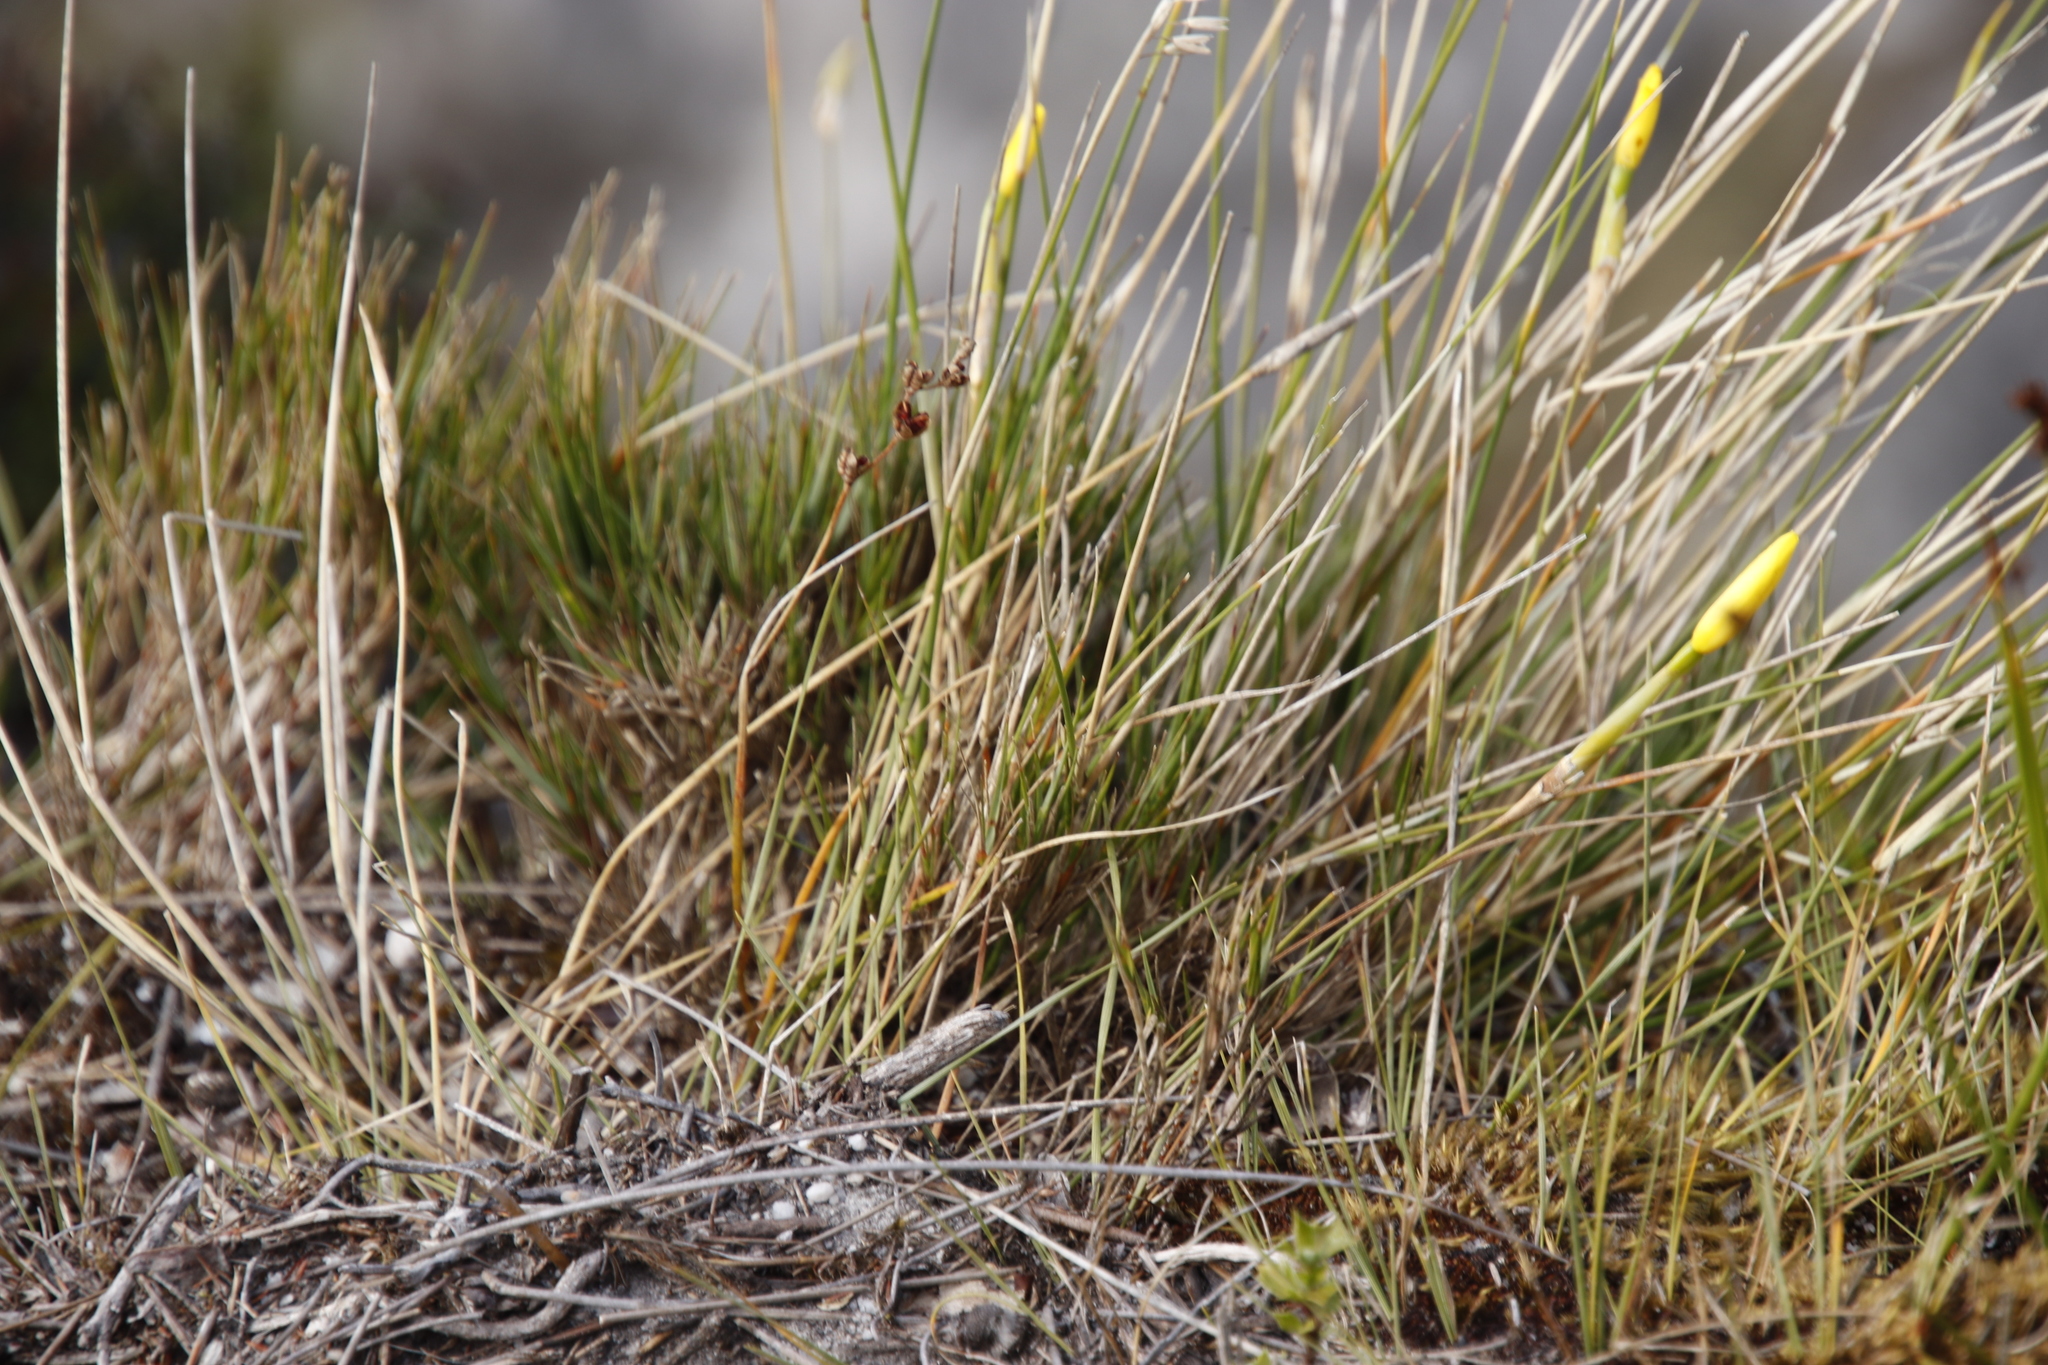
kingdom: Plantae
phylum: Tracheophyta
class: Liliopsida
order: Asparagales
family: Iridaceae
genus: Bobartia
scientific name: Bobartia filiformis
